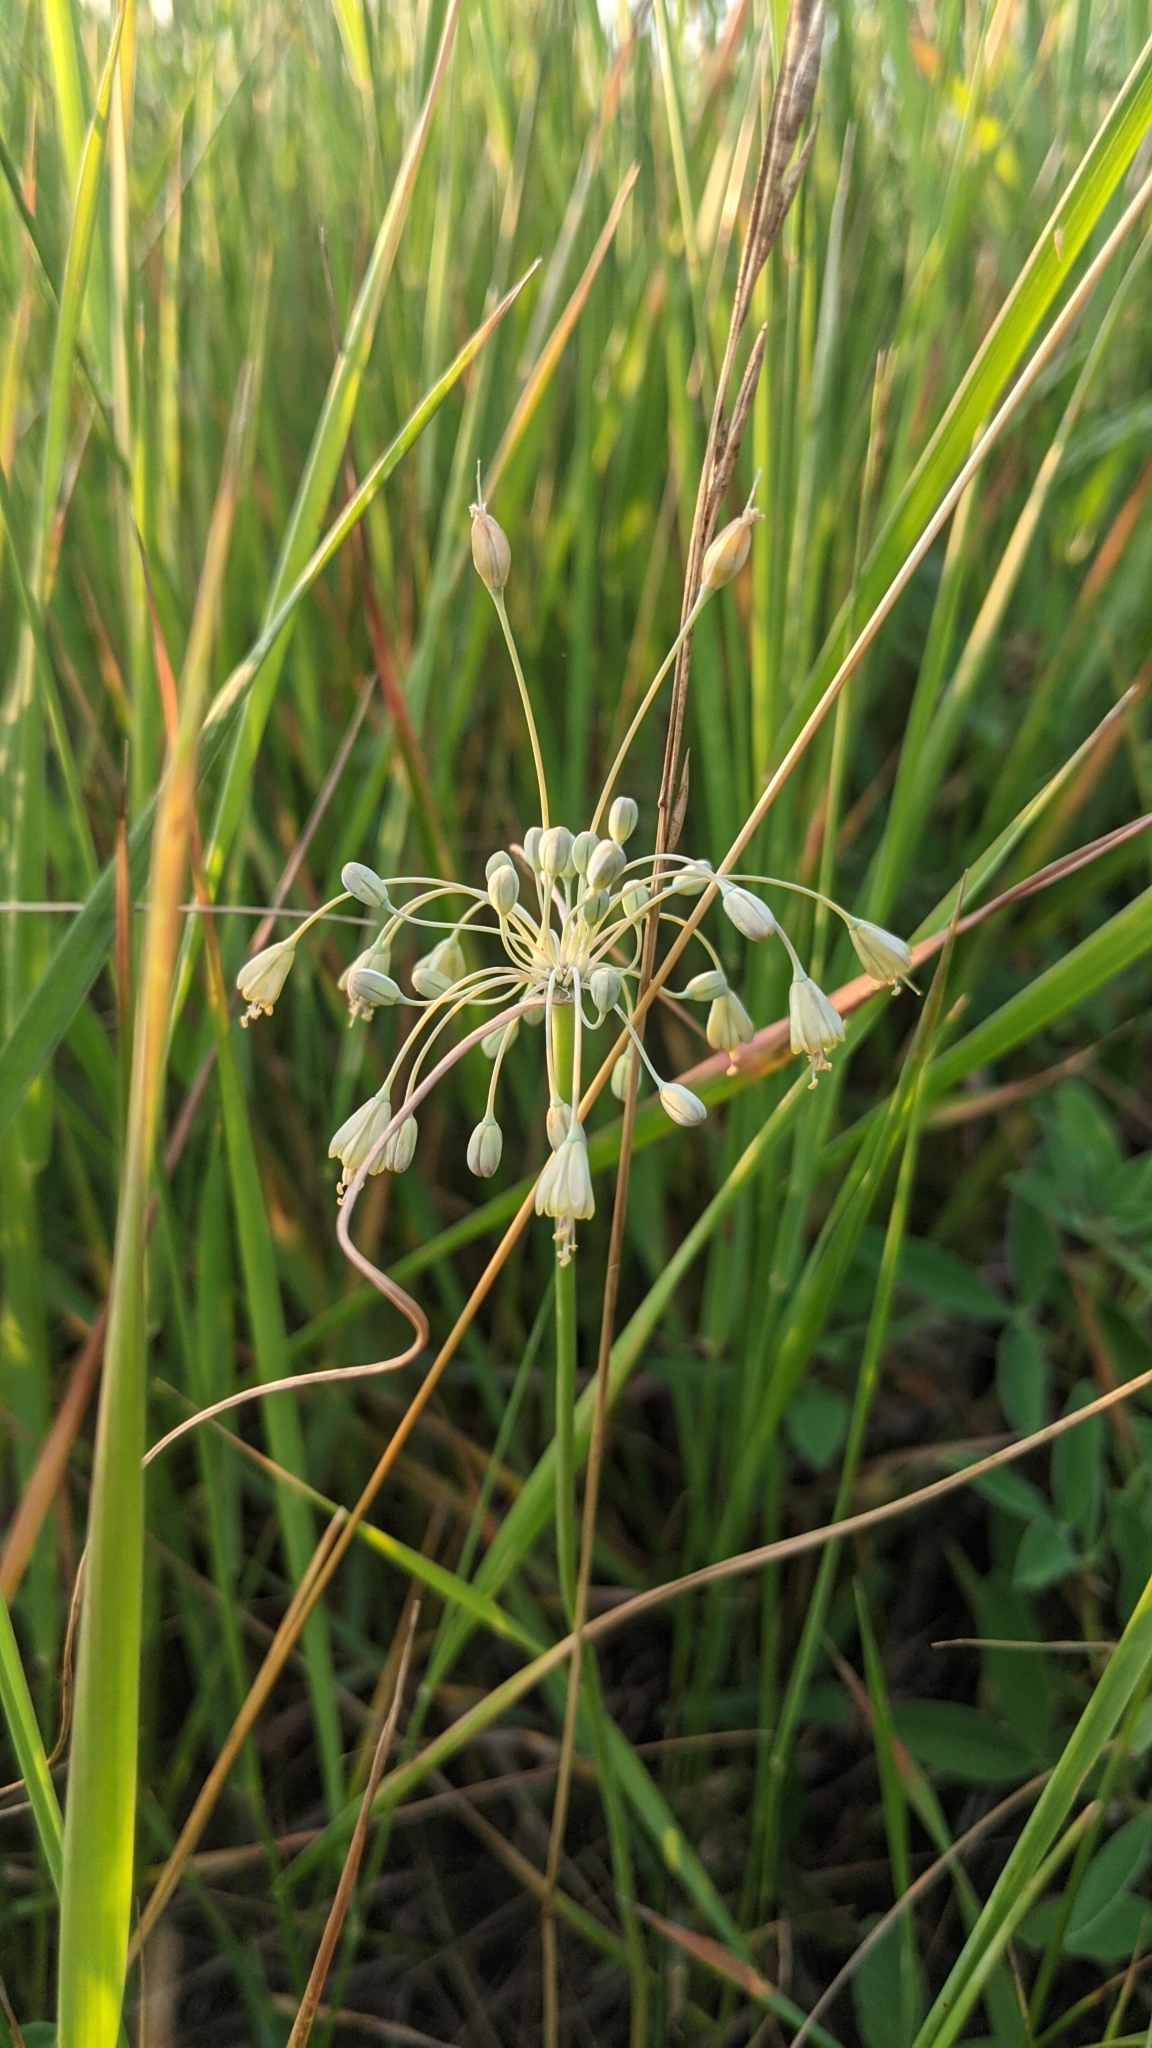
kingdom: Plantae
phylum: Tracheophyta
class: Liliopsida
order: Asparagales
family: Amaryllidaceae
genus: Allium
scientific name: Allium flavum
